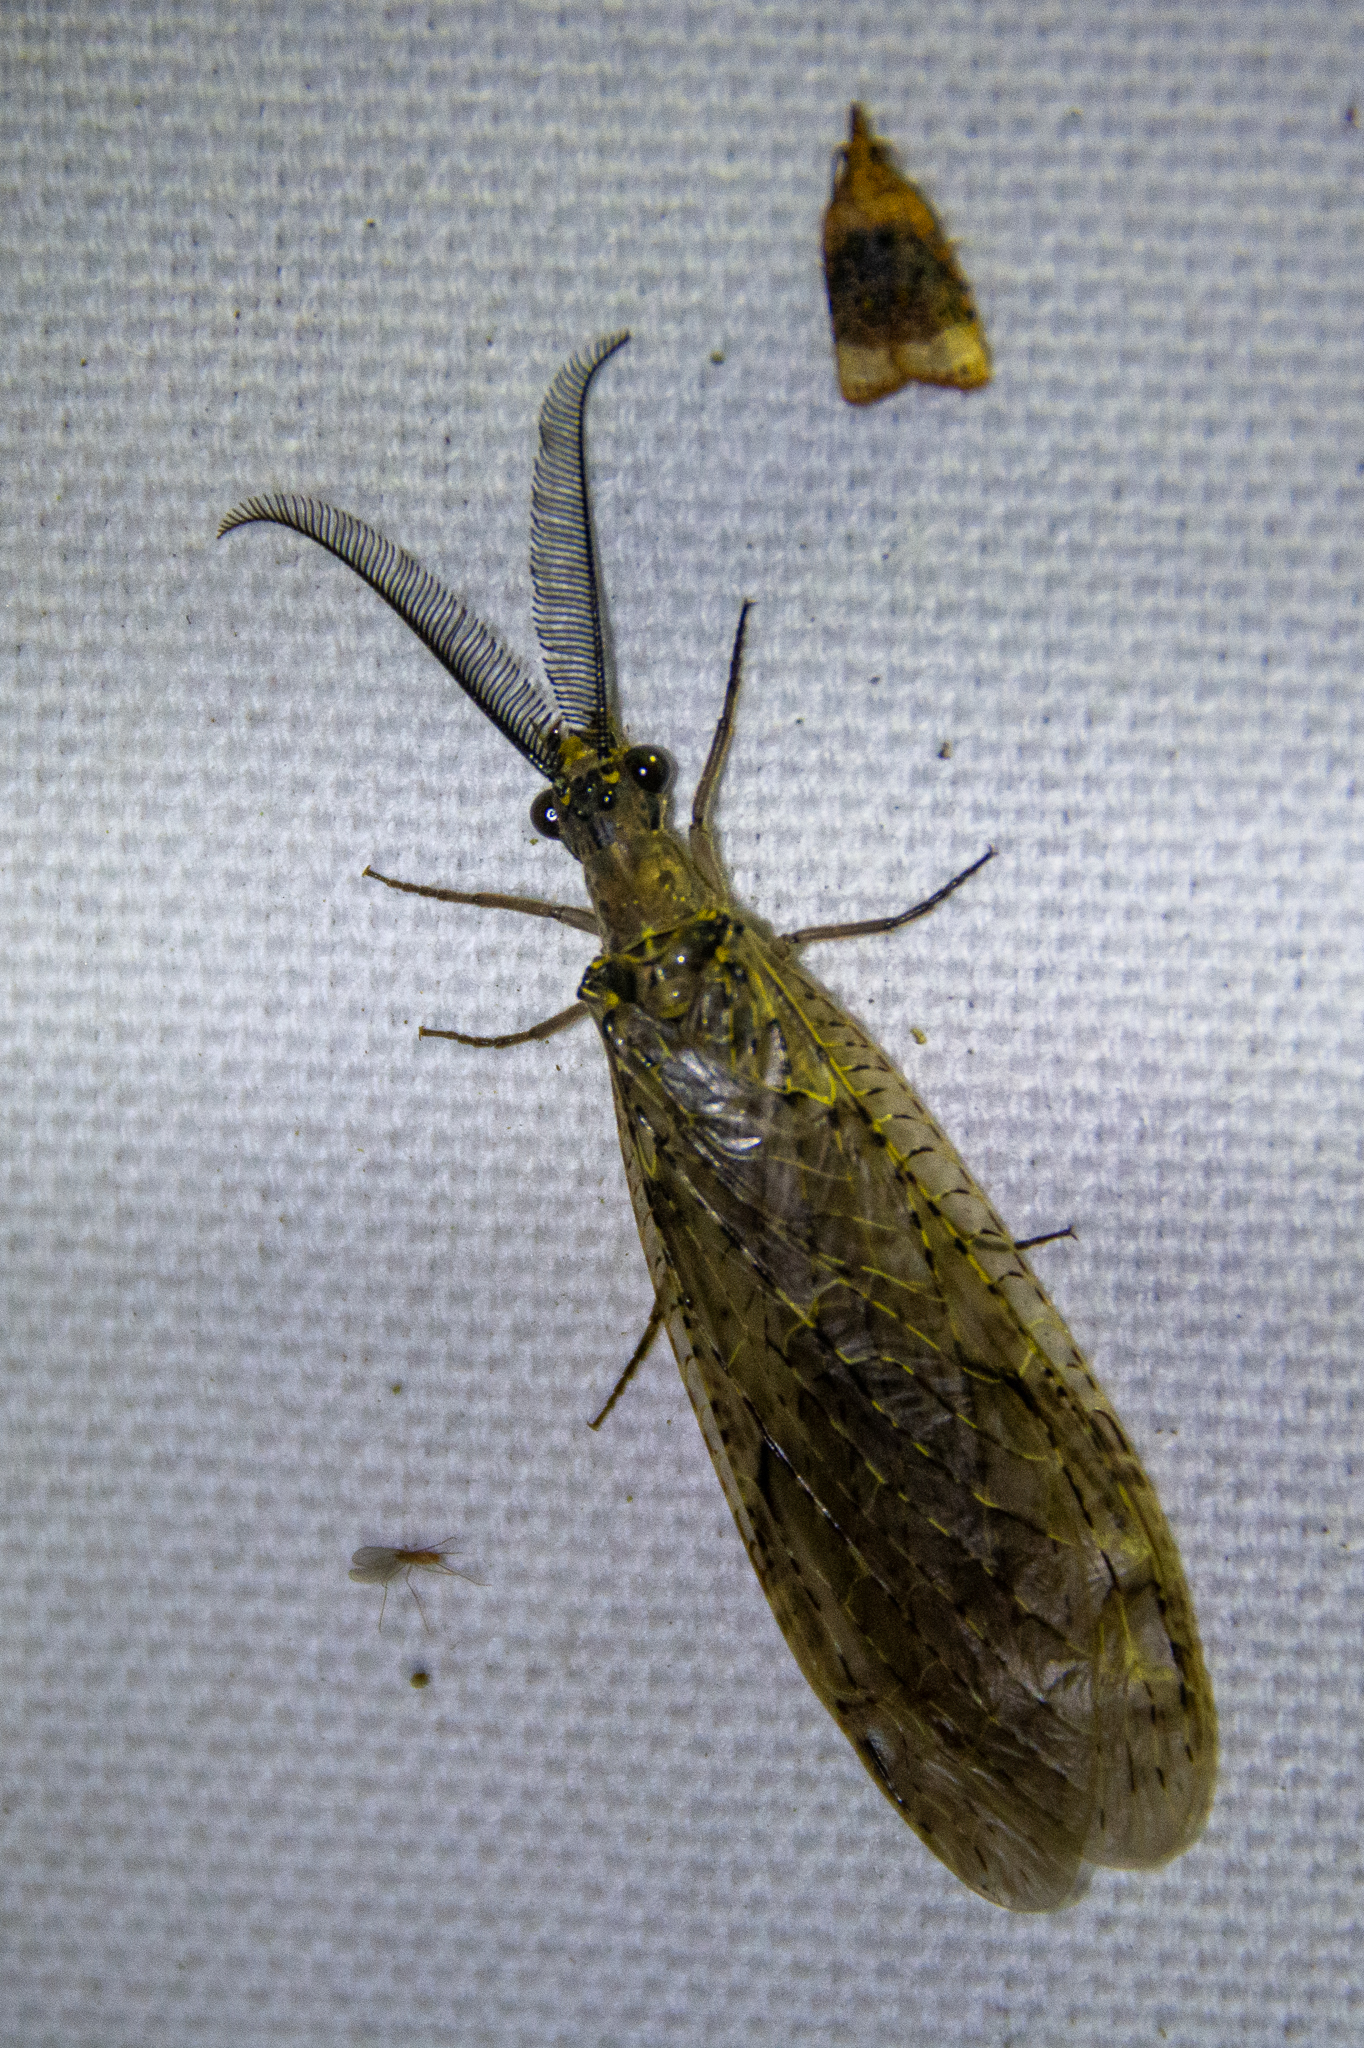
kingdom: Animalia
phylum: Arthropoda
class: Insecta
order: Megaloptera
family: Corydalidae
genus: Chauliodes
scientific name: Chauliodes rastricornis
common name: Spring fishfly
